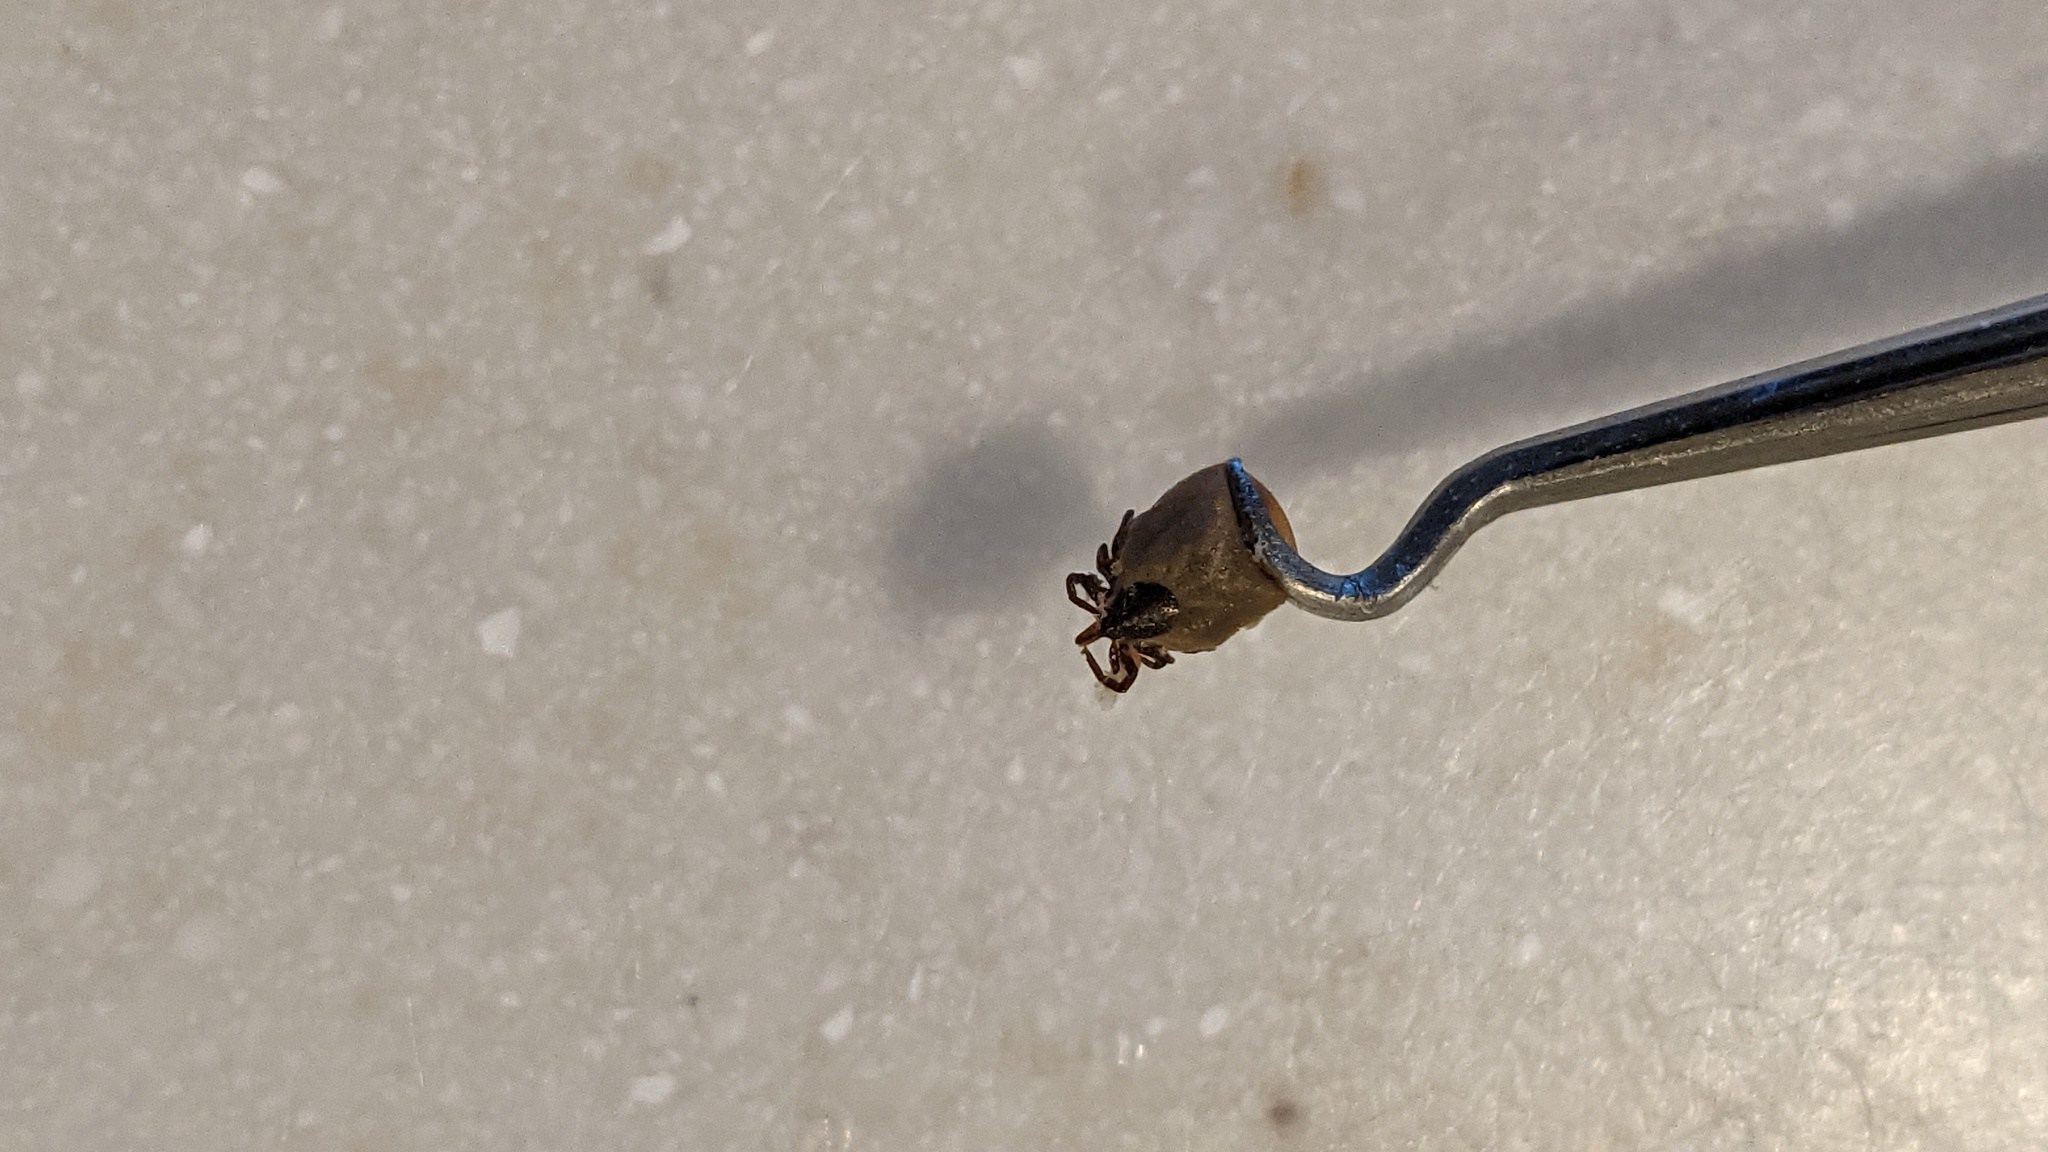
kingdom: Animalia
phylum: Arthropoda
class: Arachnida
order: Ixodida
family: Ixodidae
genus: Ixodes
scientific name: Ixodes scapularis
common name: Black legged tick
